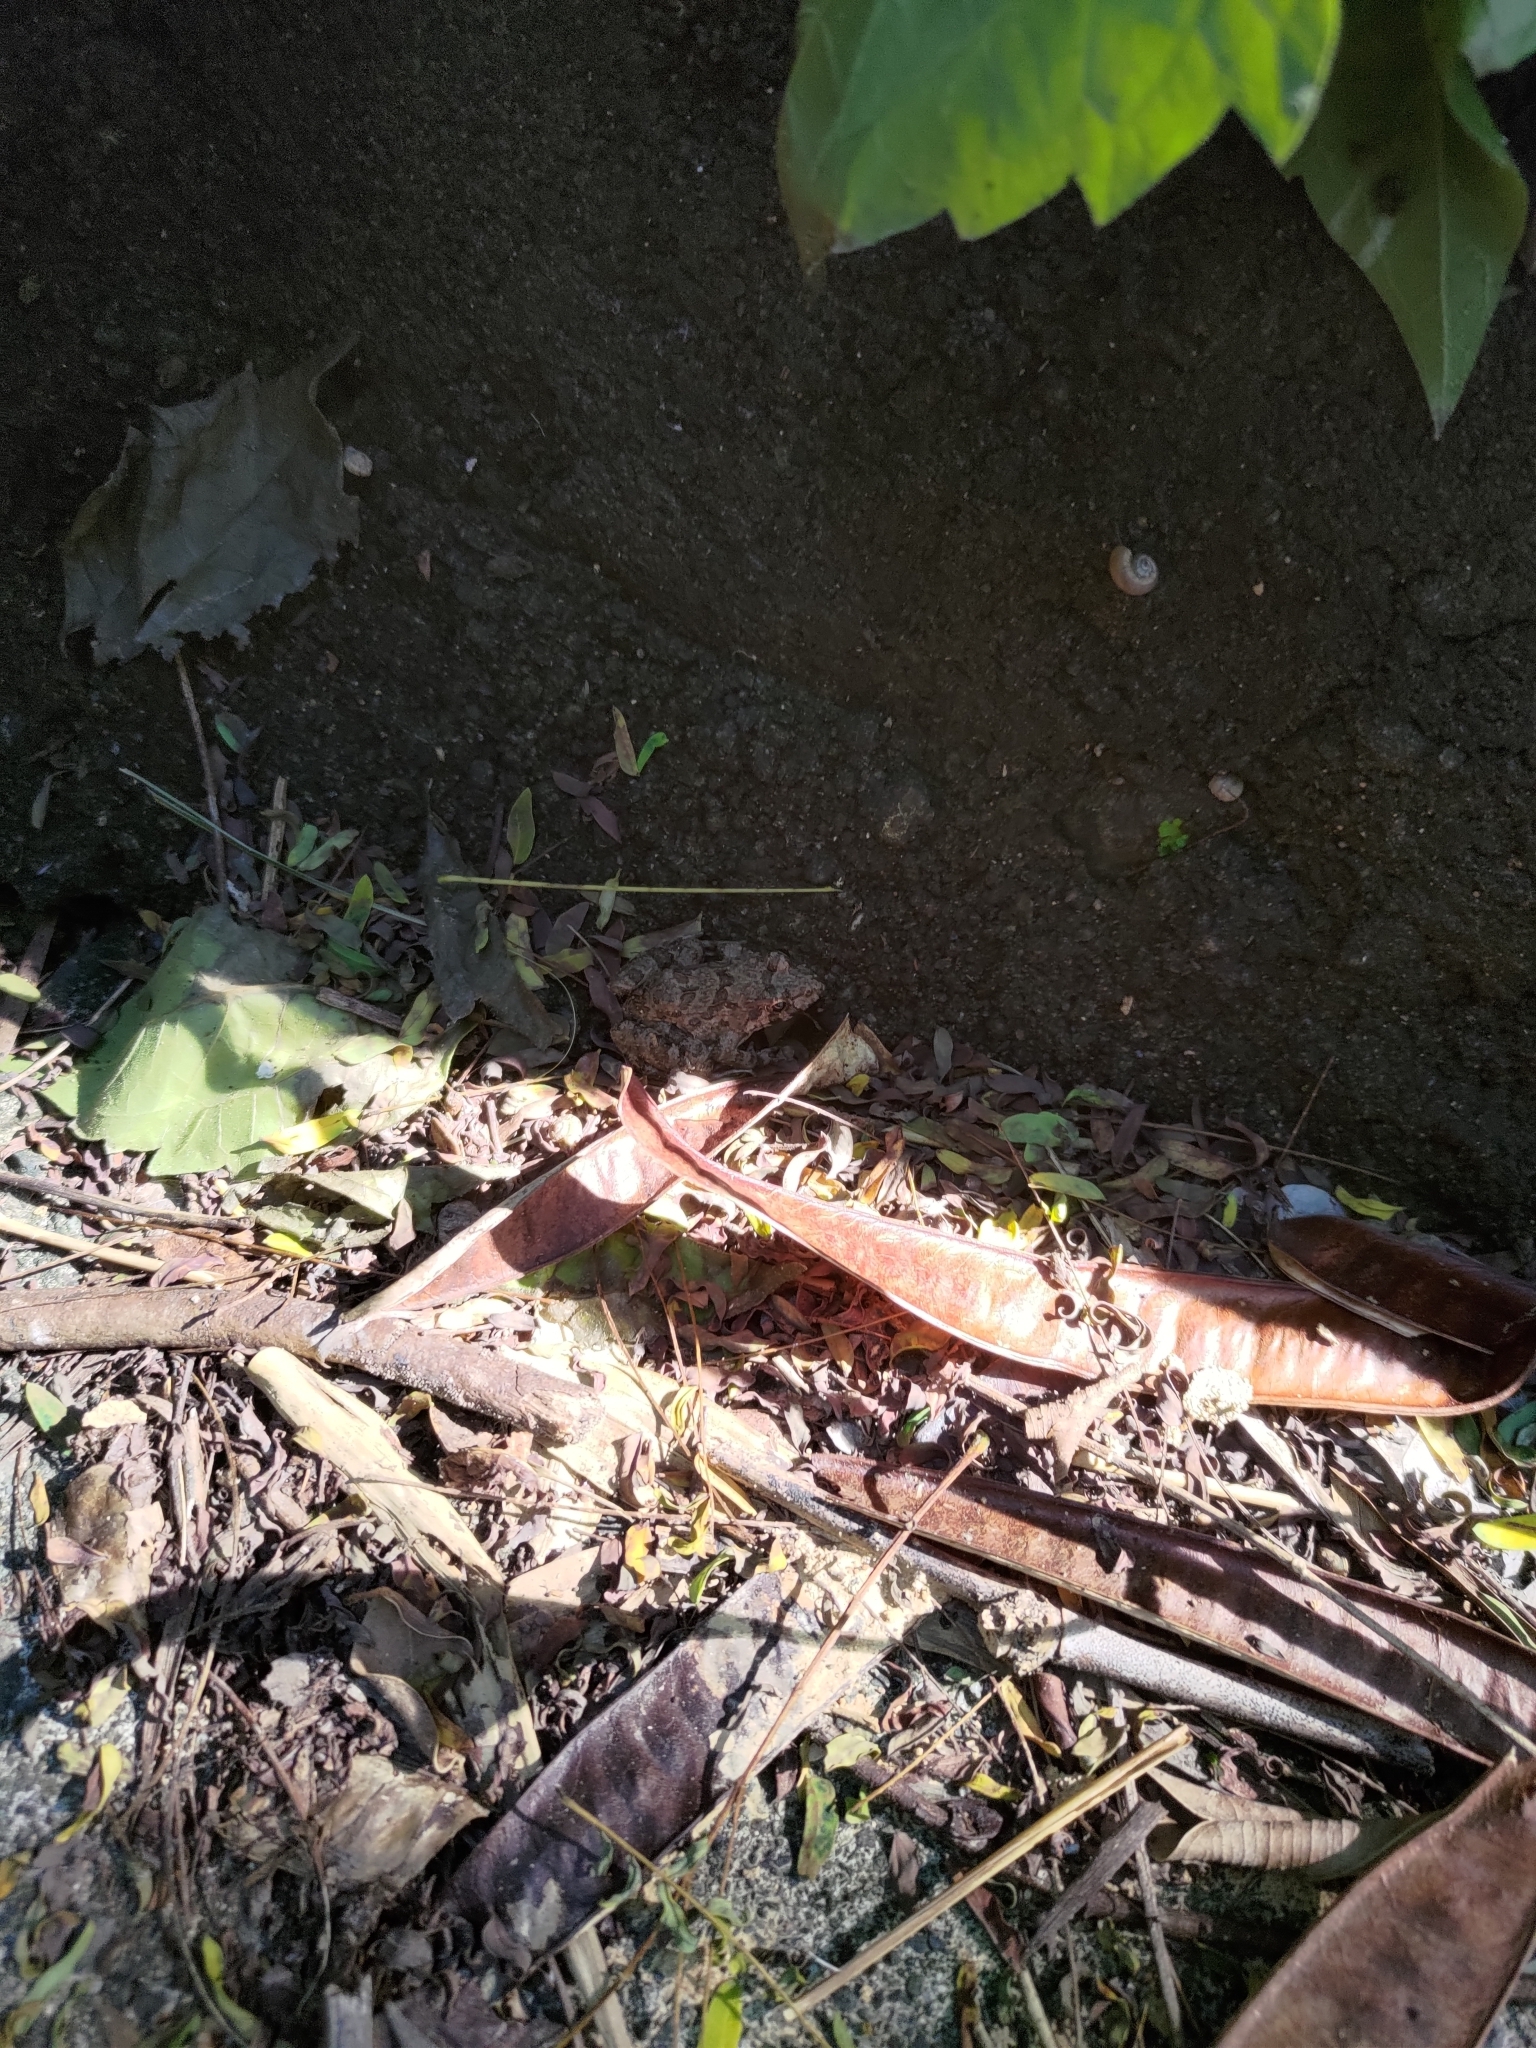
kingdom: Animalia
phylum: Chordata
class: Amphibia
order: Anura
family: Dicroglossidae
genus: Fejervarya
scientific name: Fejervarya limnocharis
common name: Asian grass frog/common pond frog/field frog/grass frog/indian rice frog
